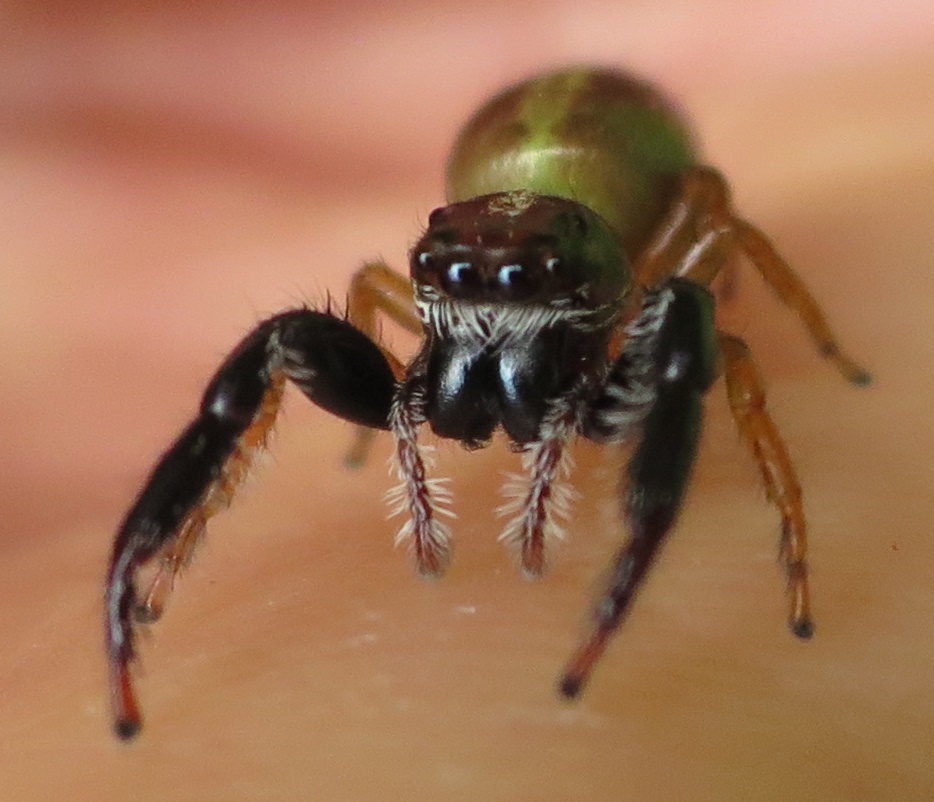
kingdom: Animalia
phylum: Arthropoda
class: Arachnida
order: Araneae
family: Salticidae
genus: Trite
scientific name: Trite planiceps
